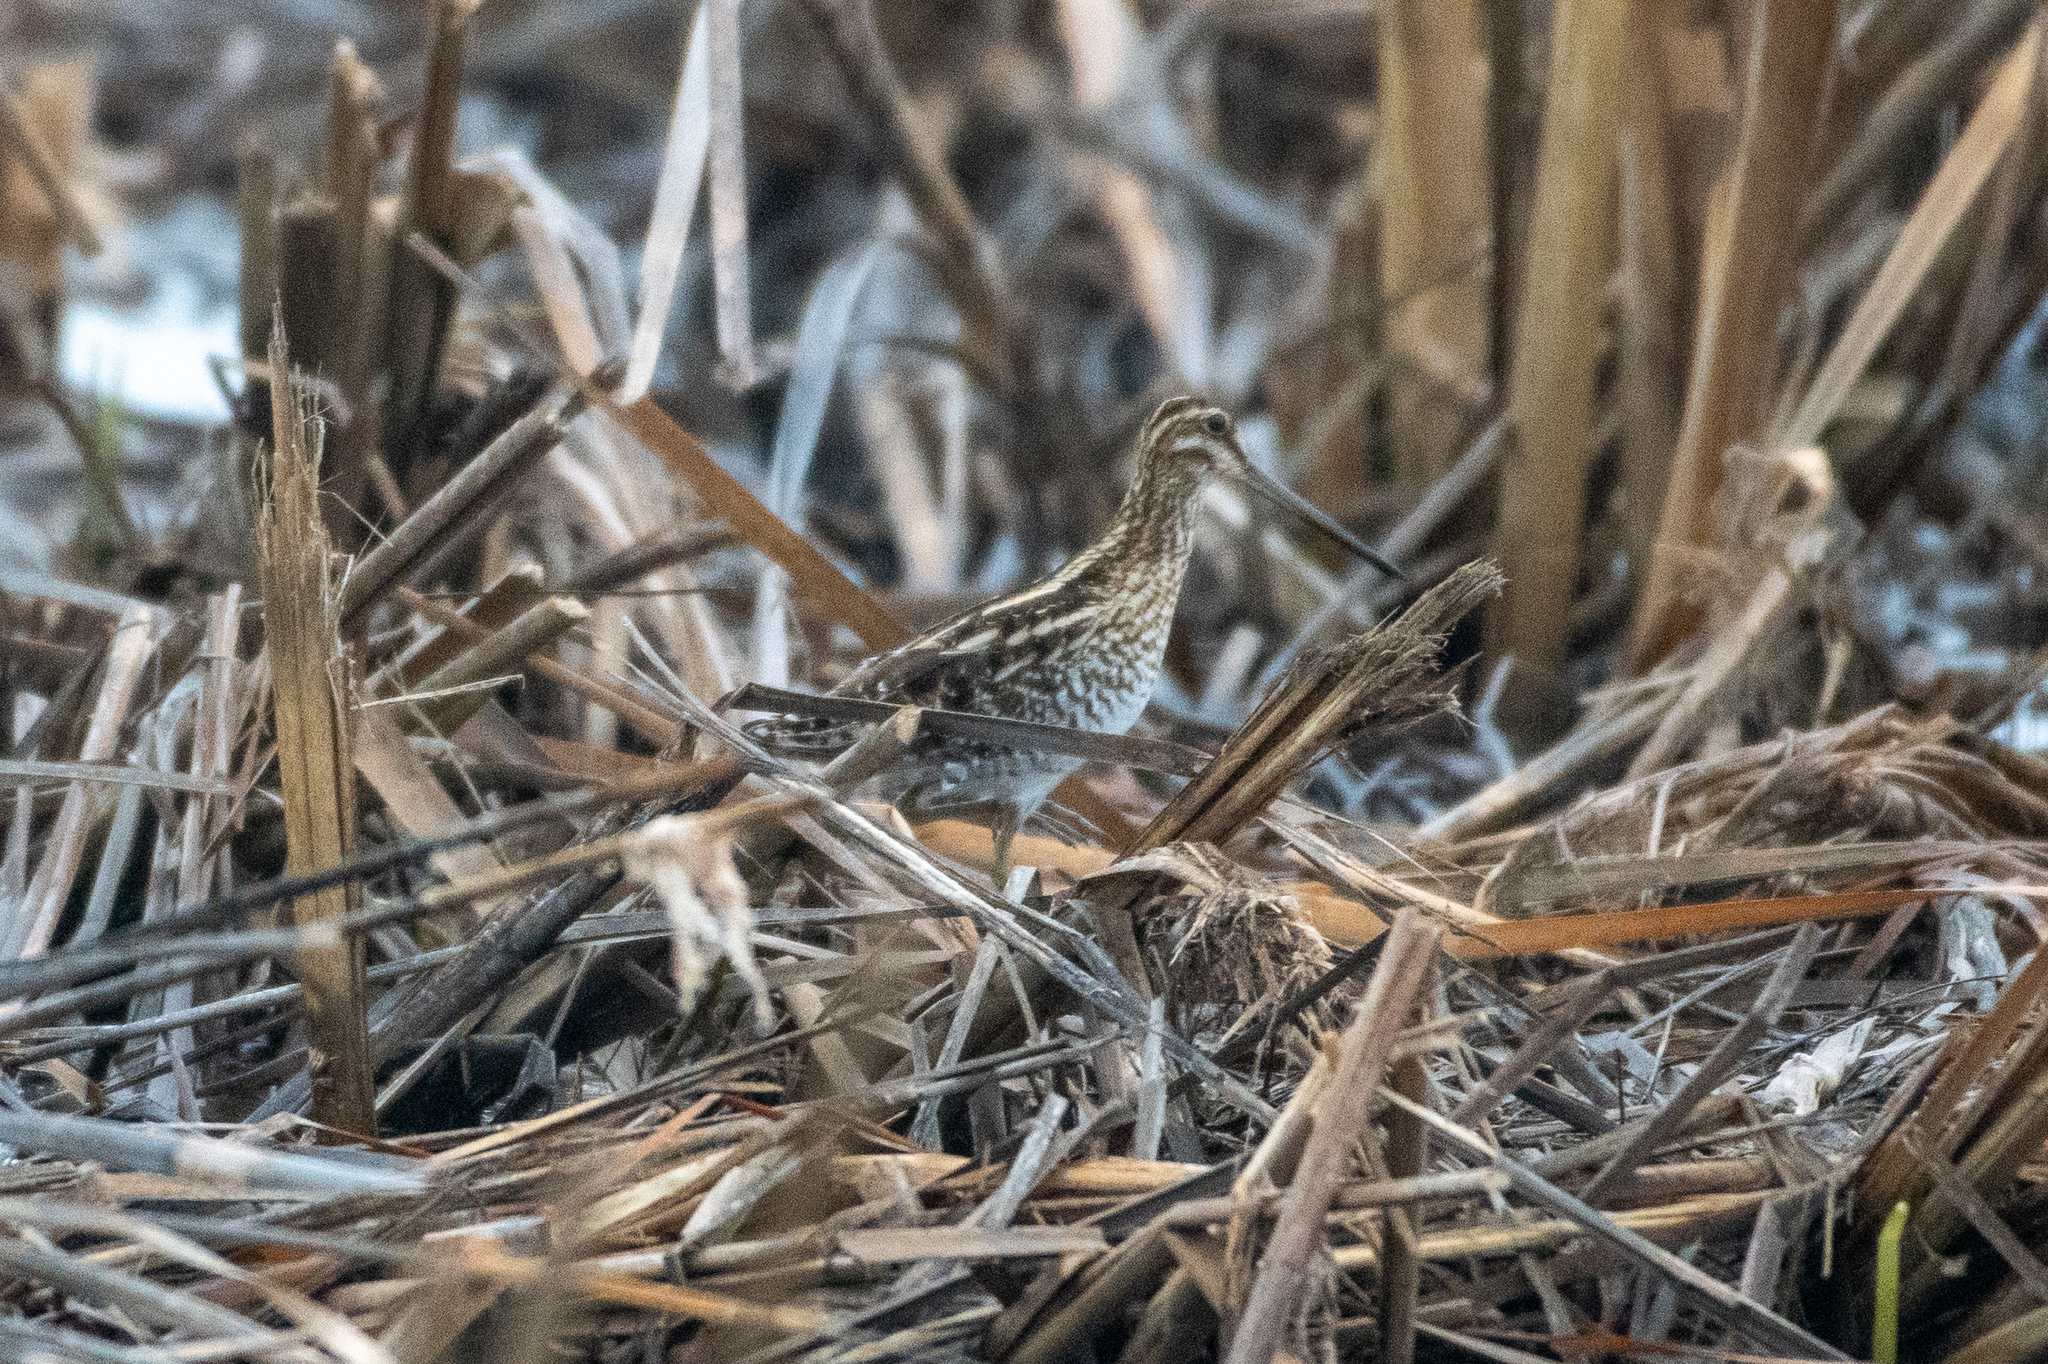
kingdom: Animalia
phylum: Chordata
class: Aves
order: Charadriiformes
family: Scolopacidae
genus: Gallinago
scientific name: Gallinago delicata
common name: Wilson's snipe
